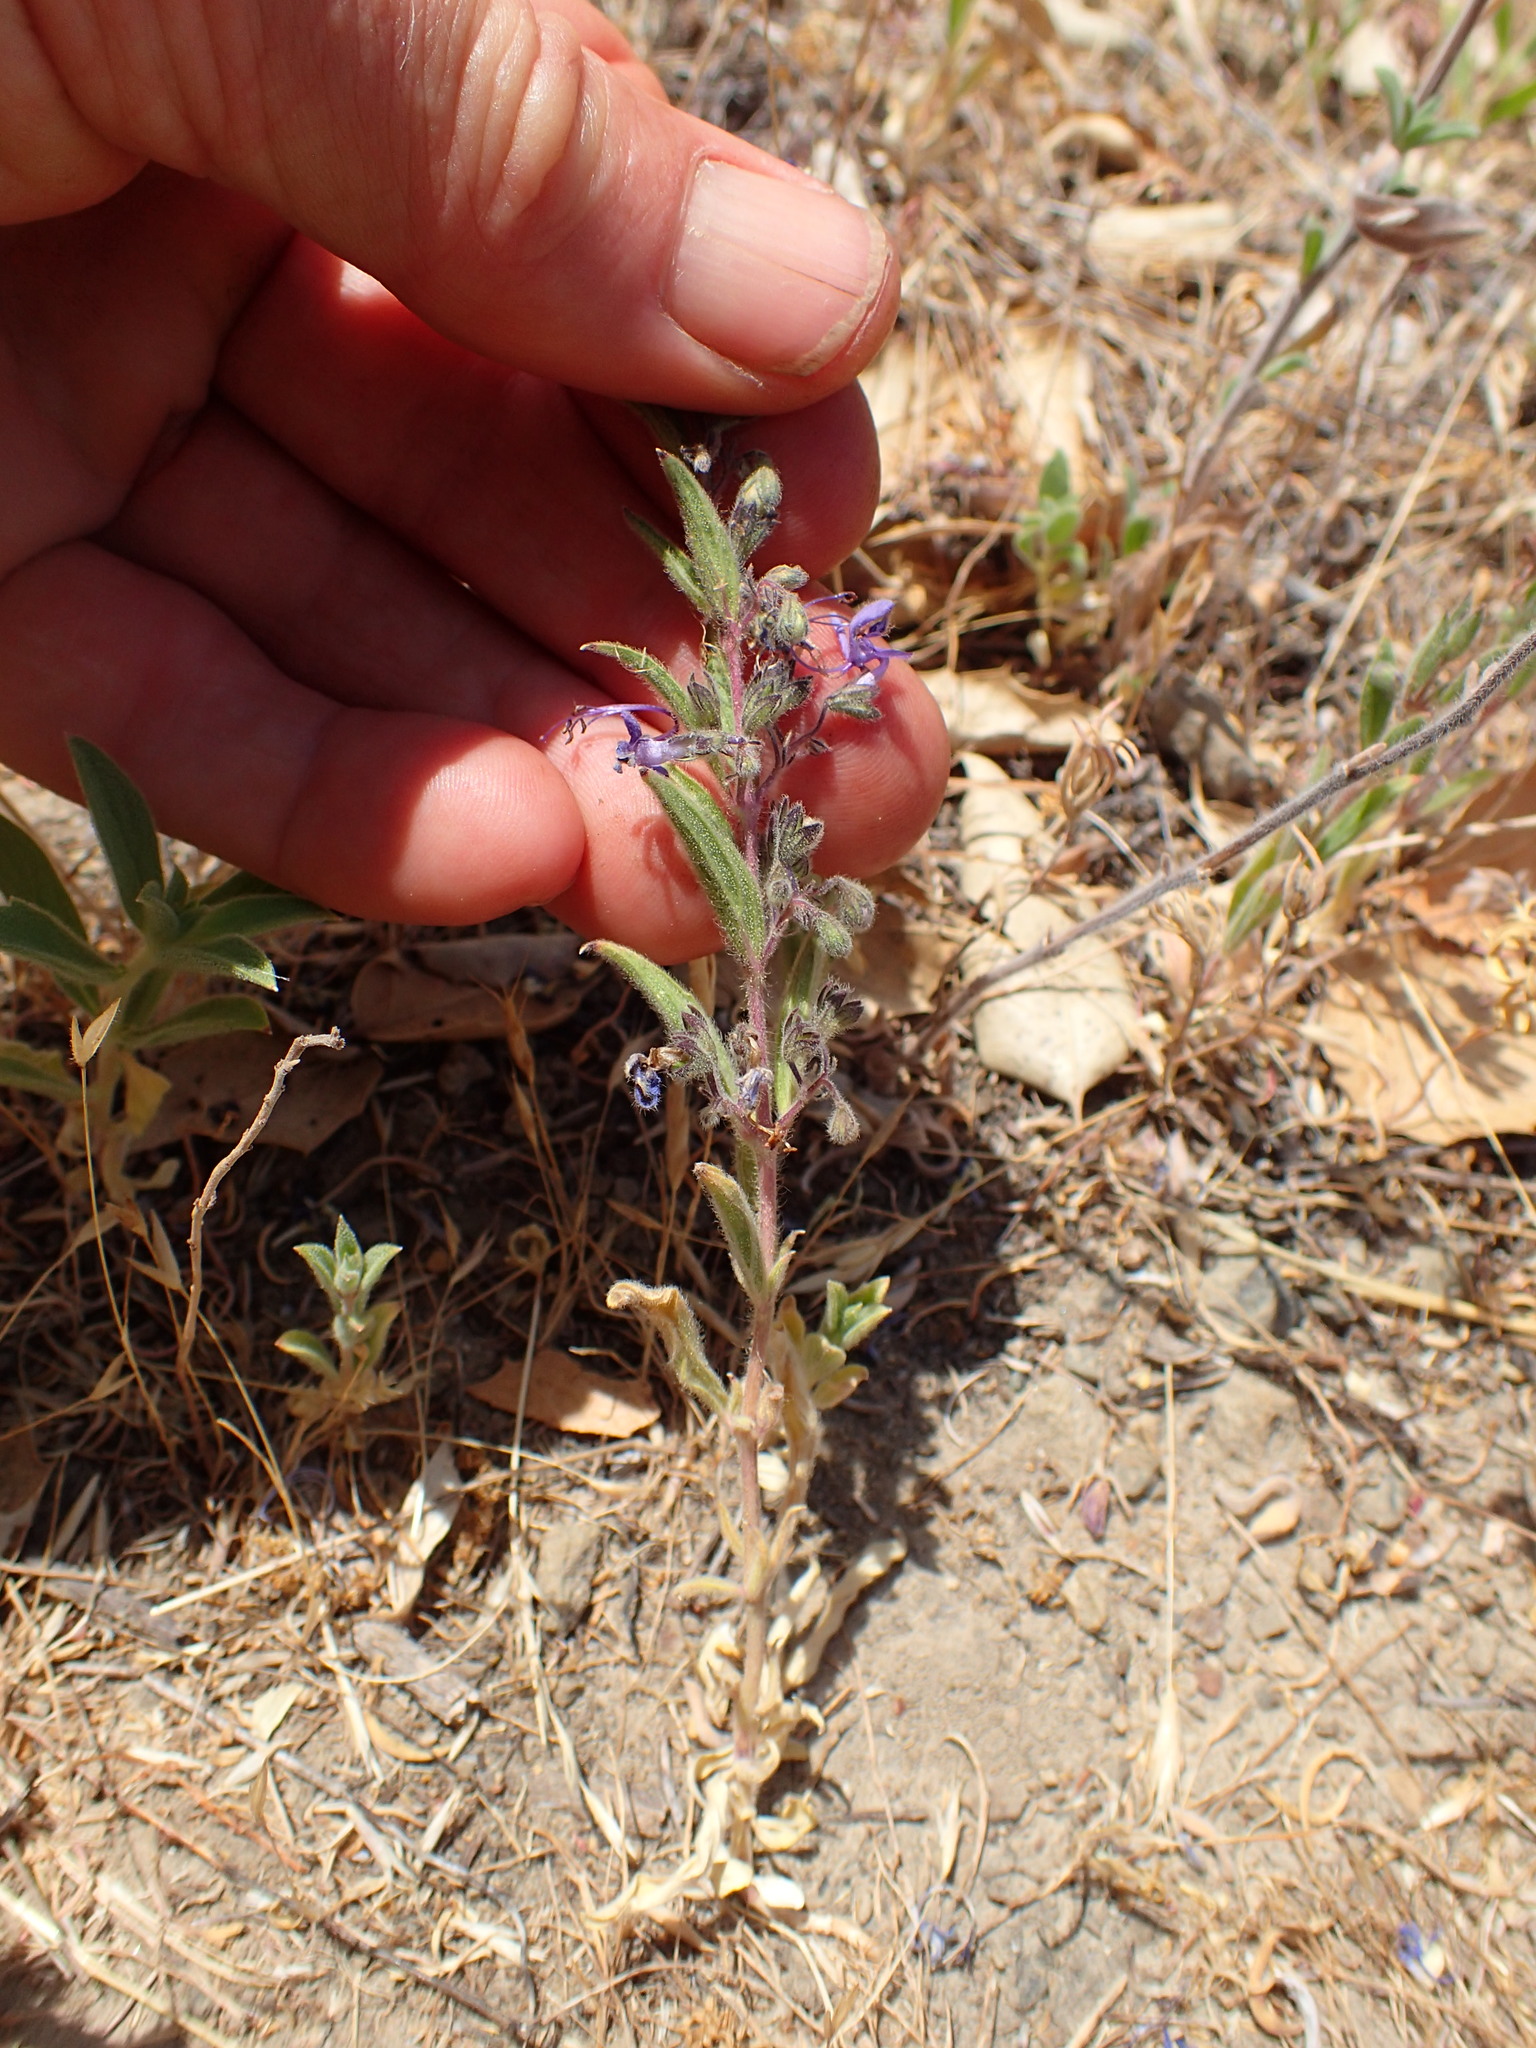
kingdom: Plantae
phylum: Tracheophyta
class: Magnoliopsida
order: Lamiales
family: Lamiaceae
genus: Trichostema
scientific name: Trichostema lanceolatum
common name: Vinegar-weed
